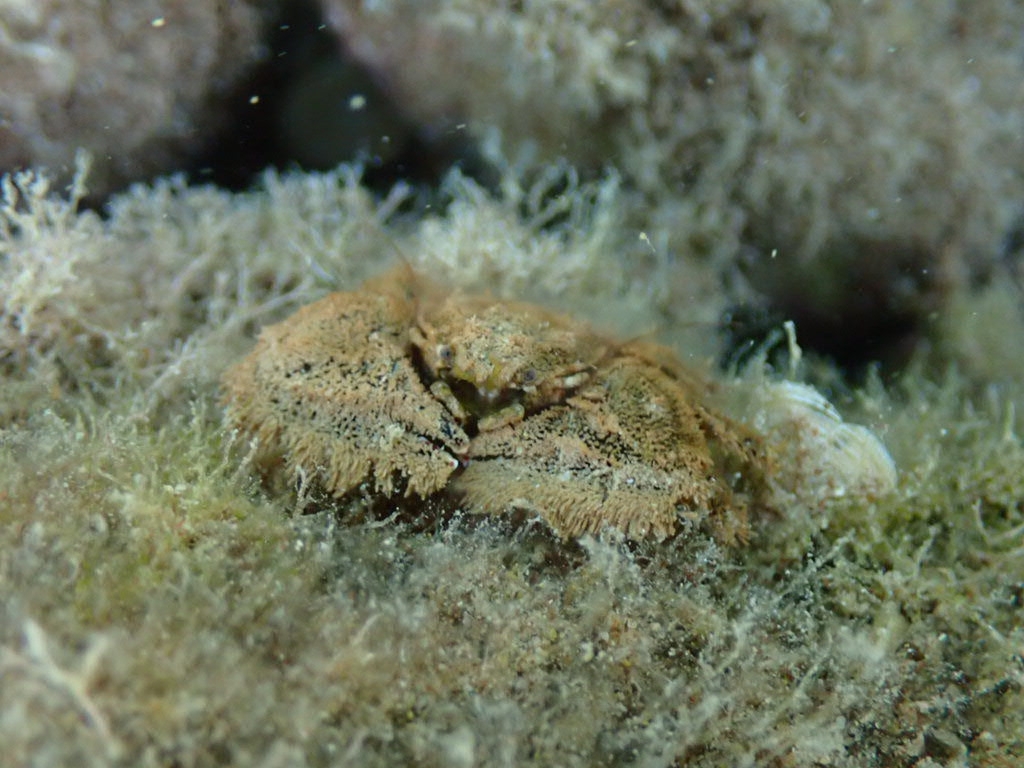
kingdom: Animalia
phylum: Arthropoda
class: Malacostraca
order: Decapoda
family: Porcellanidae
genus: Porcellana
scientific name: Porcellana platycheles
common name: Porcelain crab
